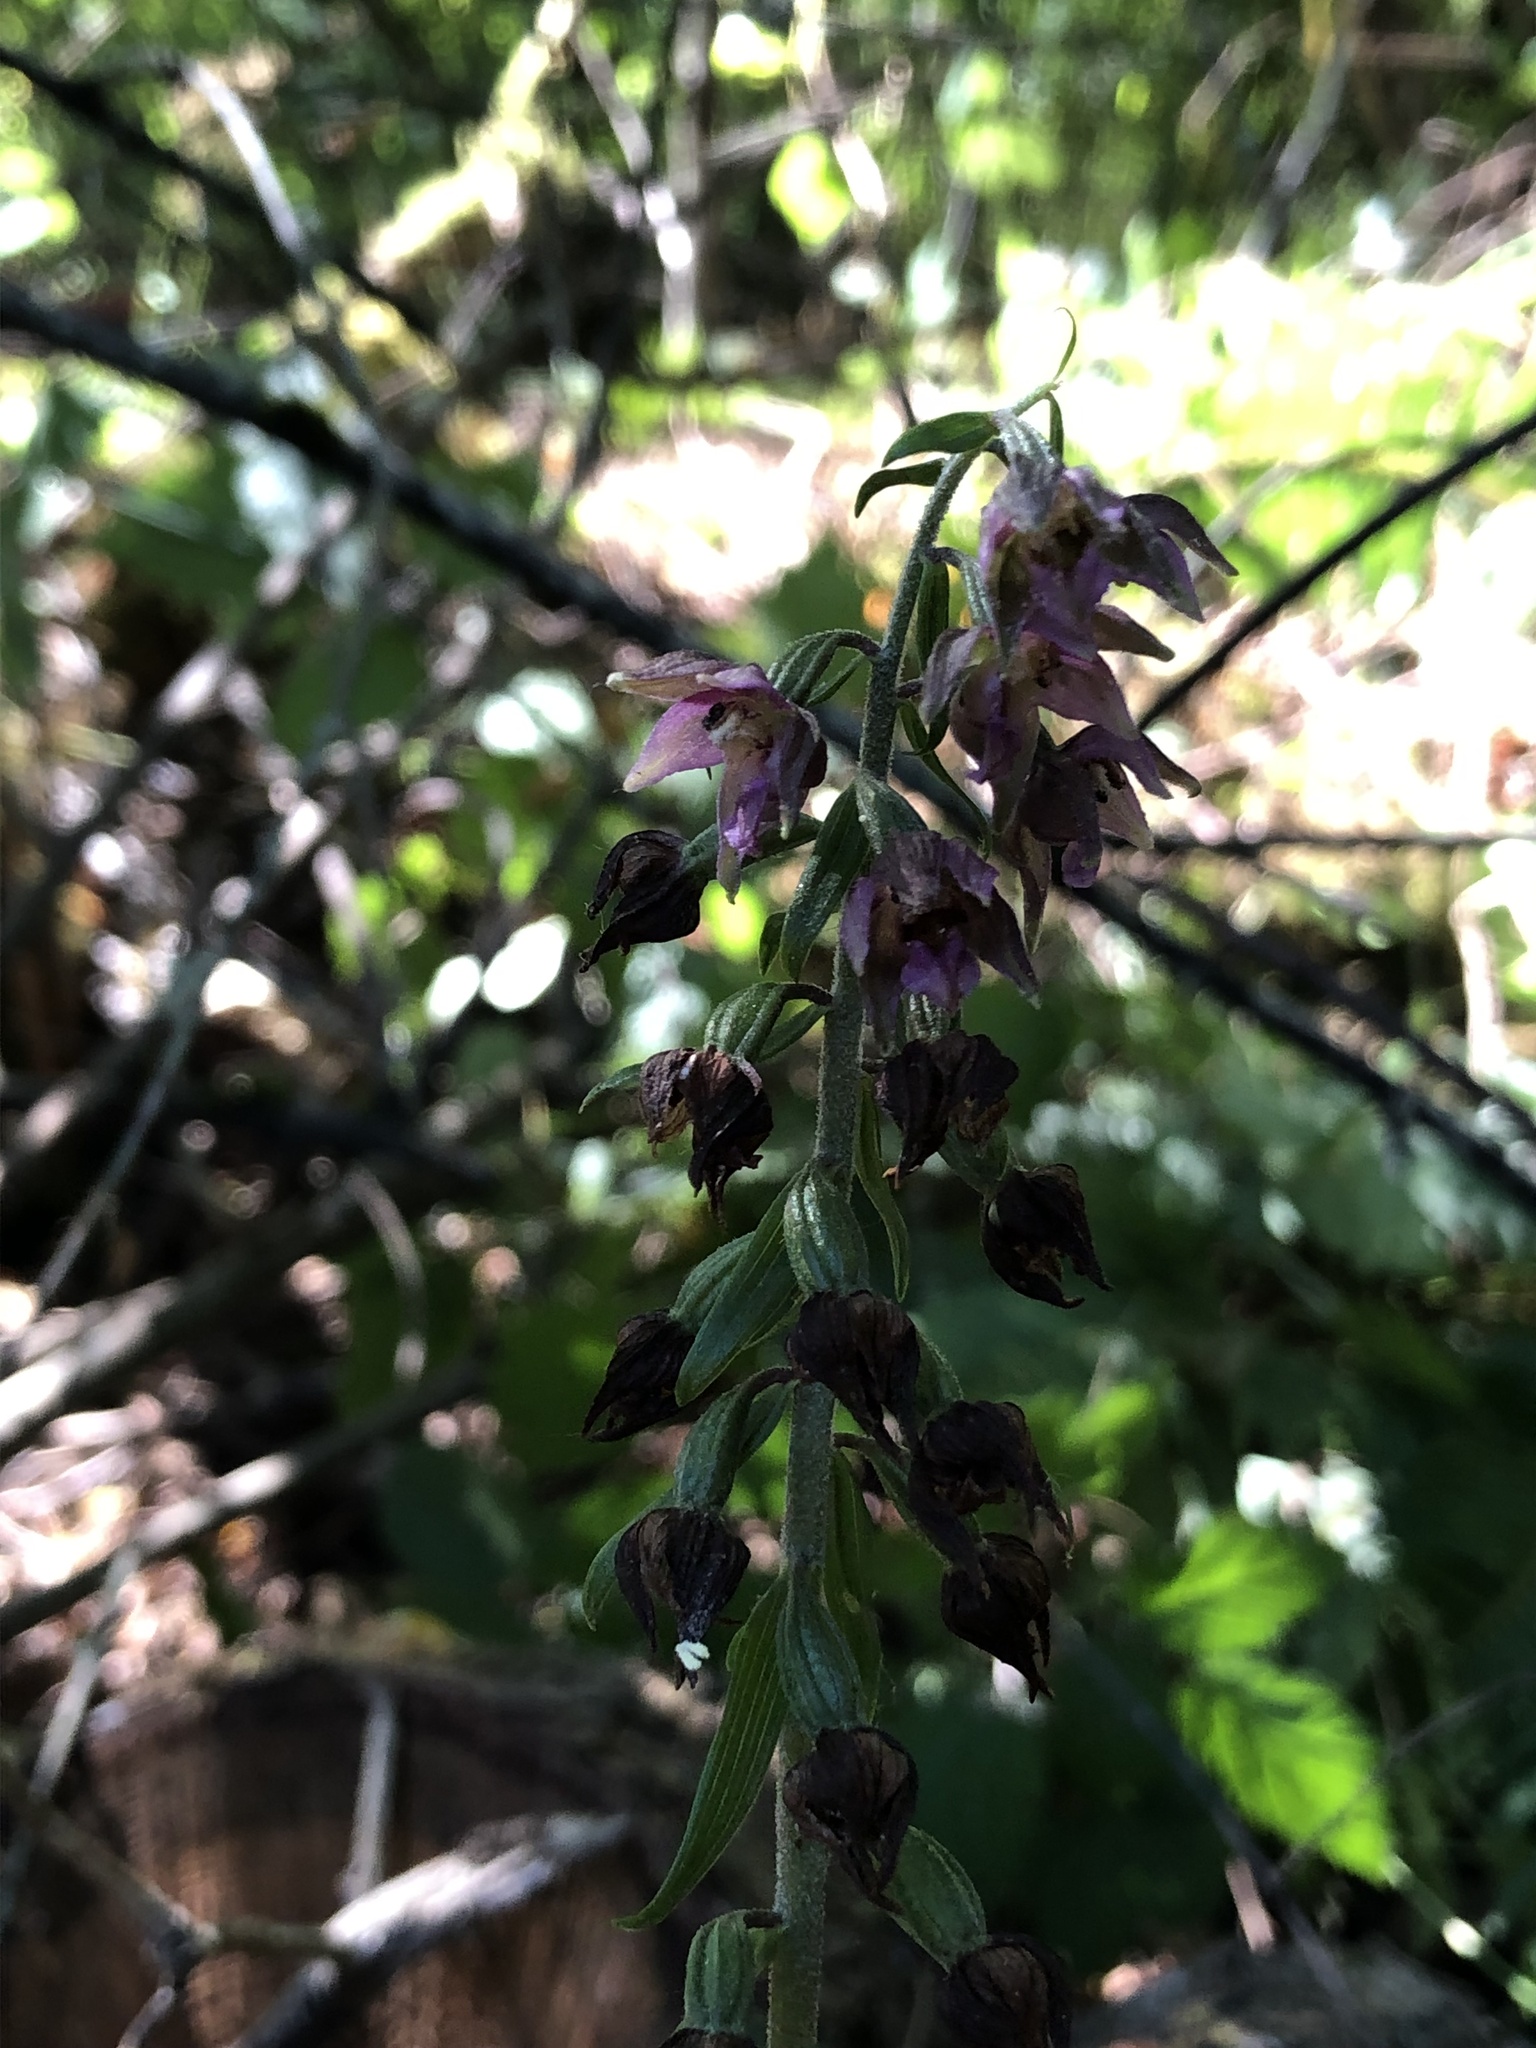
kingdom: Plantae
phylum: Tracheophyta
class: Liliopsida
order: Asparagales
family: Orchidaceae
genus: Epipactis
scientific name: Epipactis helleborine
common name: Broad-leaved helleborine
